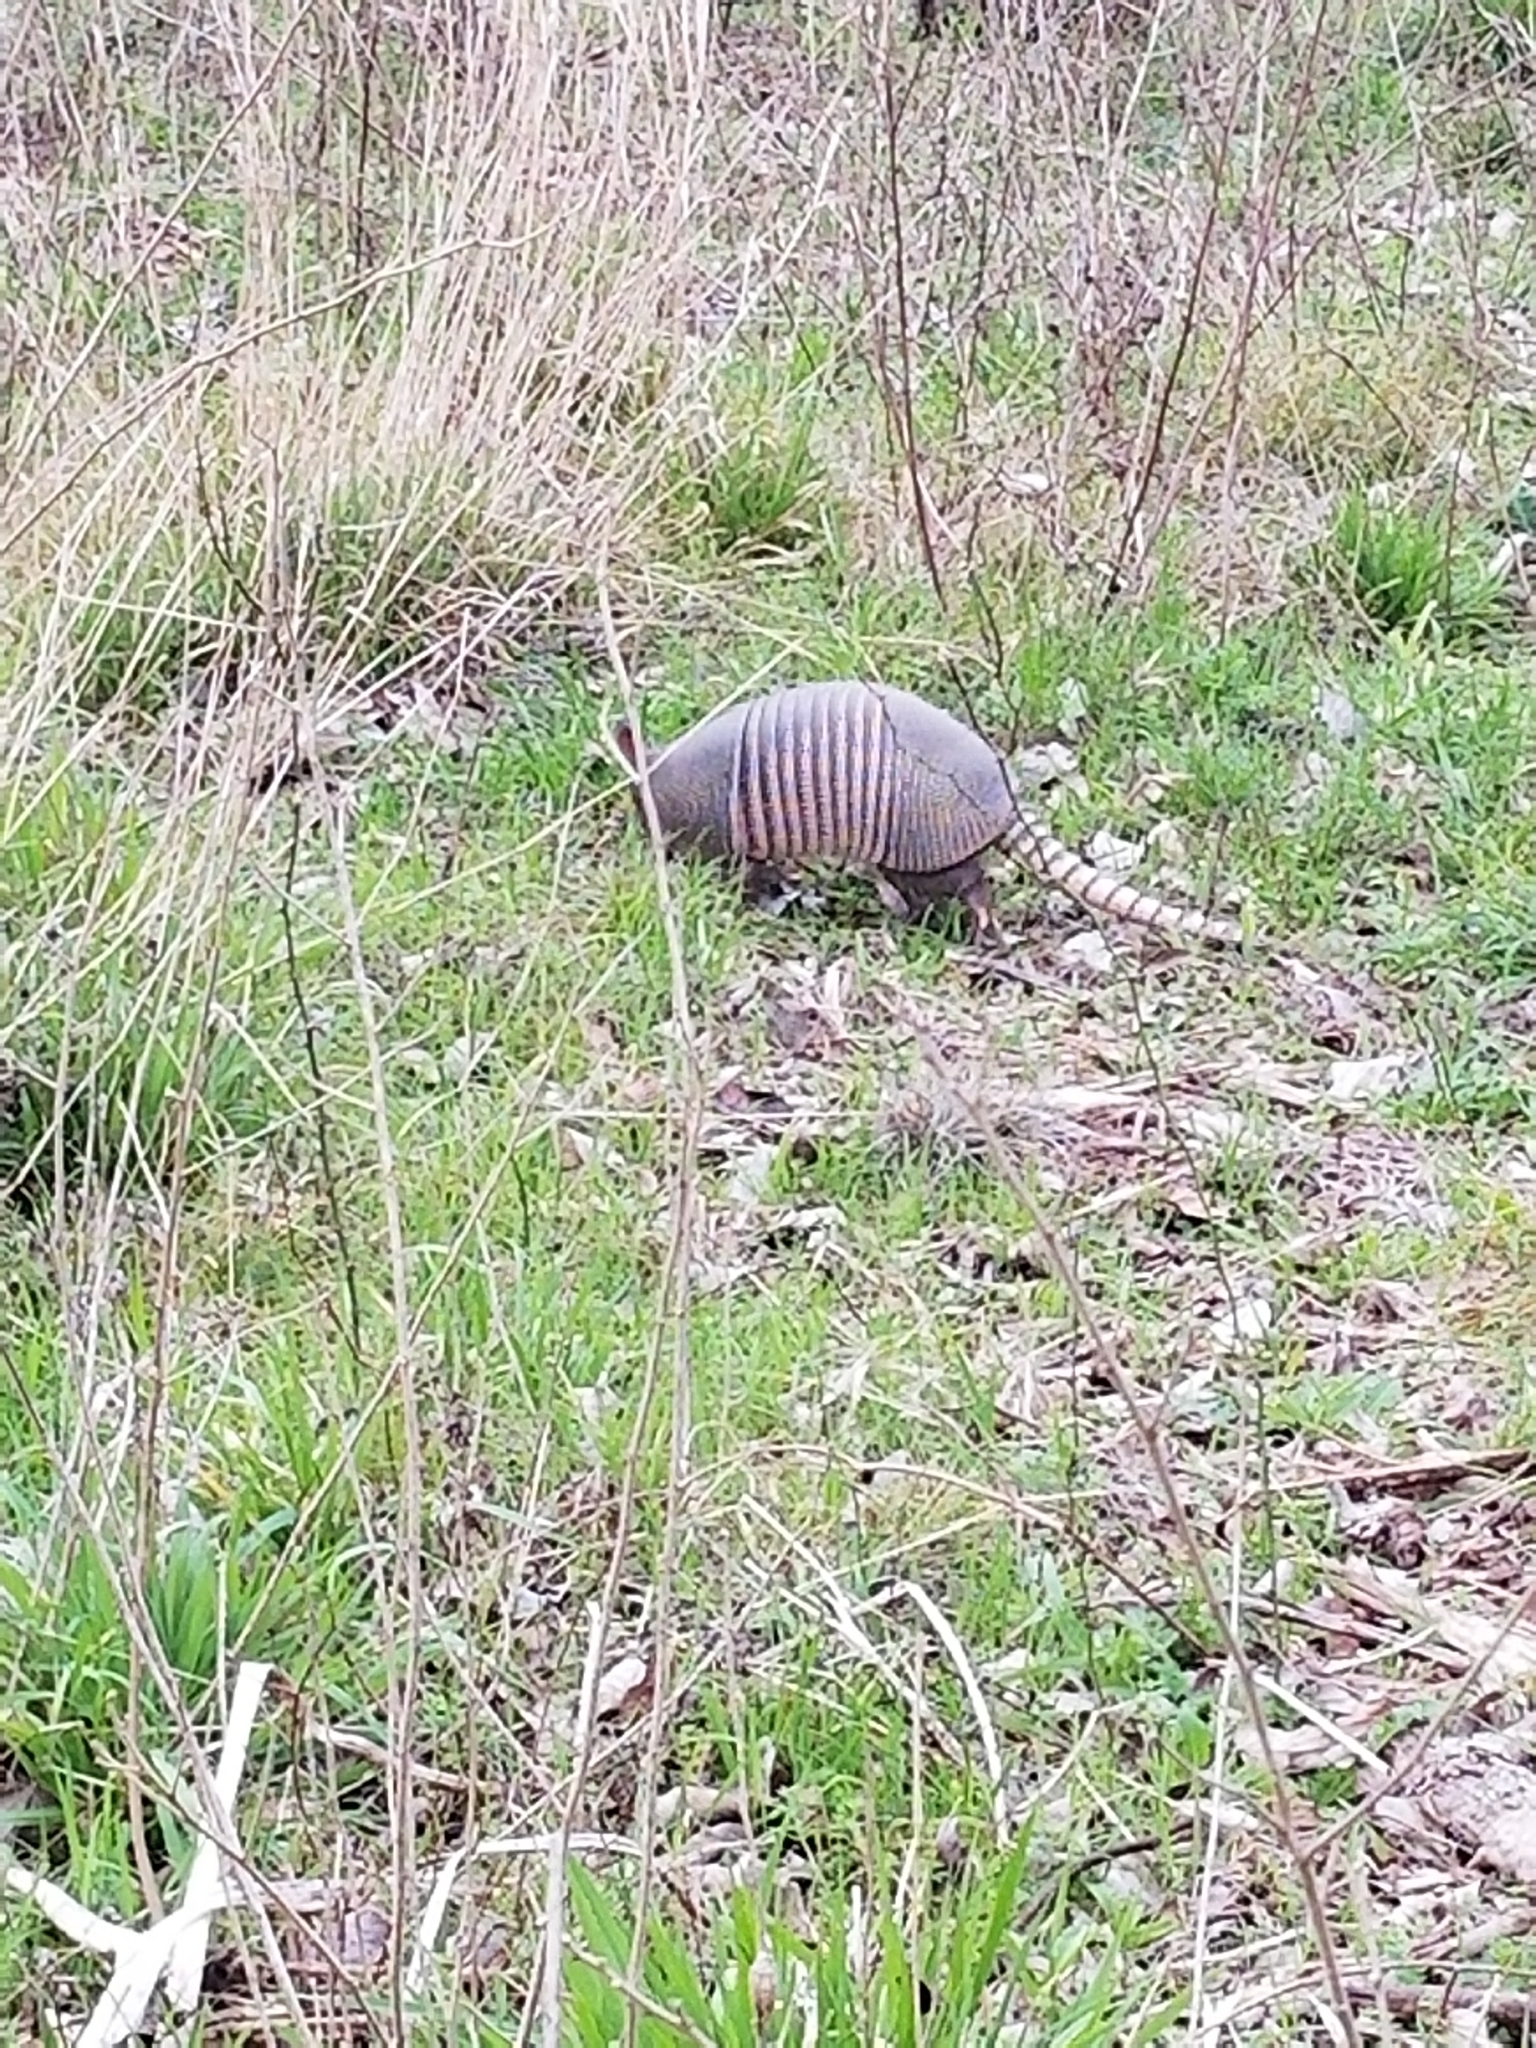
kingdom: Animalia
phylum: Chordata
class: Mammalia
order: Cingulata
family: Dasypodidae
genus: Dasypus
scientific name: Dasypus novemcinctus
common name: Nine-banded armadillo
